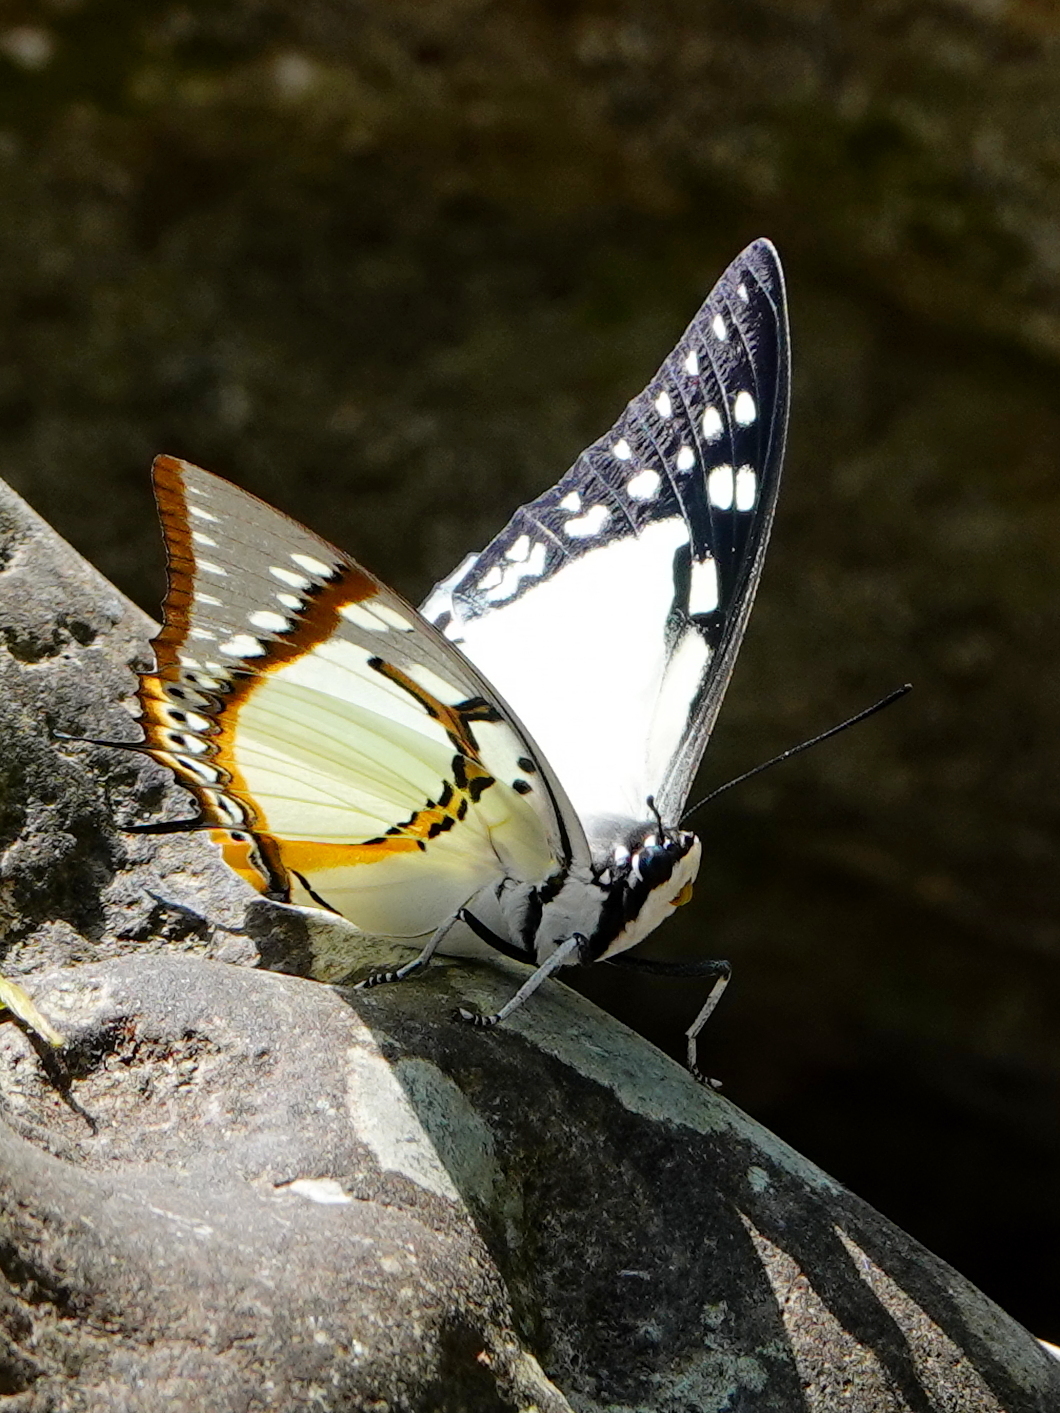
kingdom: Animalia
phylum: Arthropoda
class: Insecta
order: Lepidoptera
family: Nymphalidae
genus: Polyura
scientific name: Polyura eudamippus
